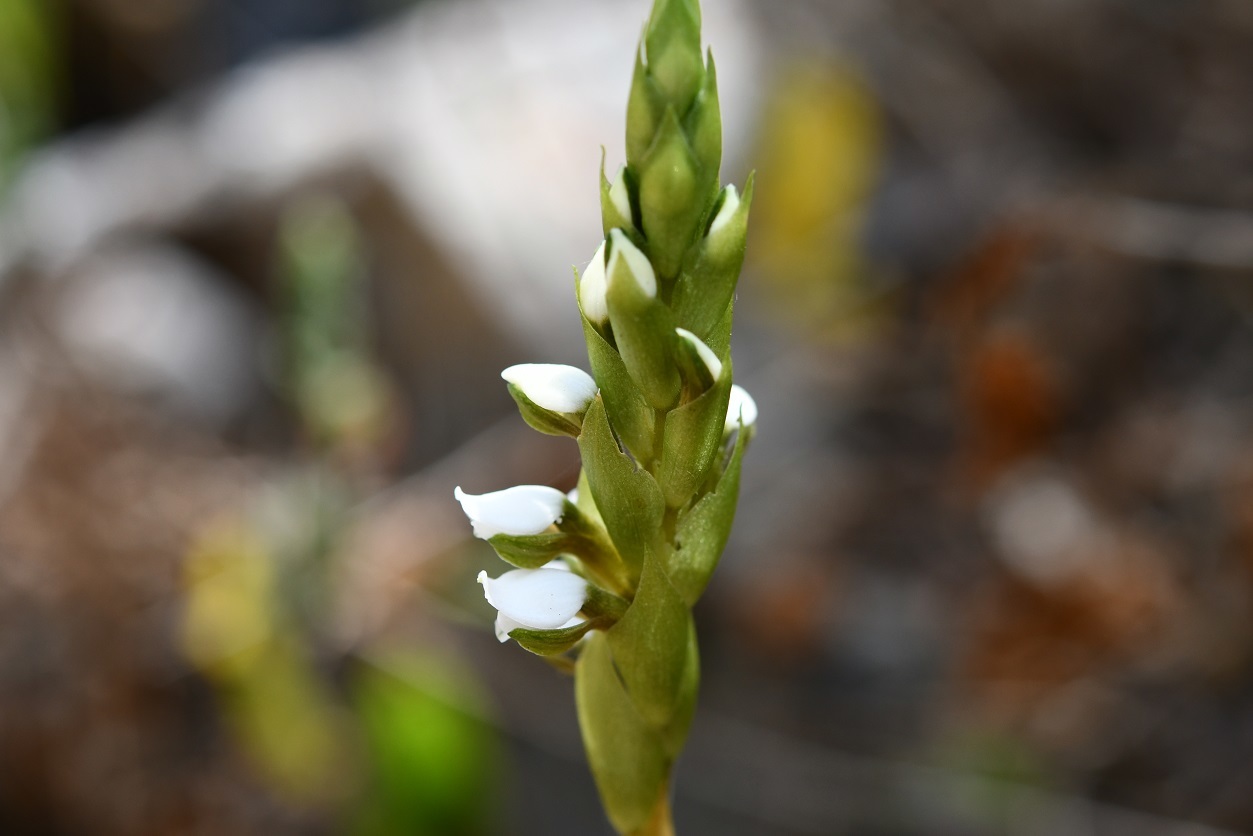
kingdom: Plantae
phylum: Tracheophyta
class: Liliopsida
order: Asparagales
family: Orchidaceae
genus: Aulosepalum
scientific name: Aulosepalum hemichrea
